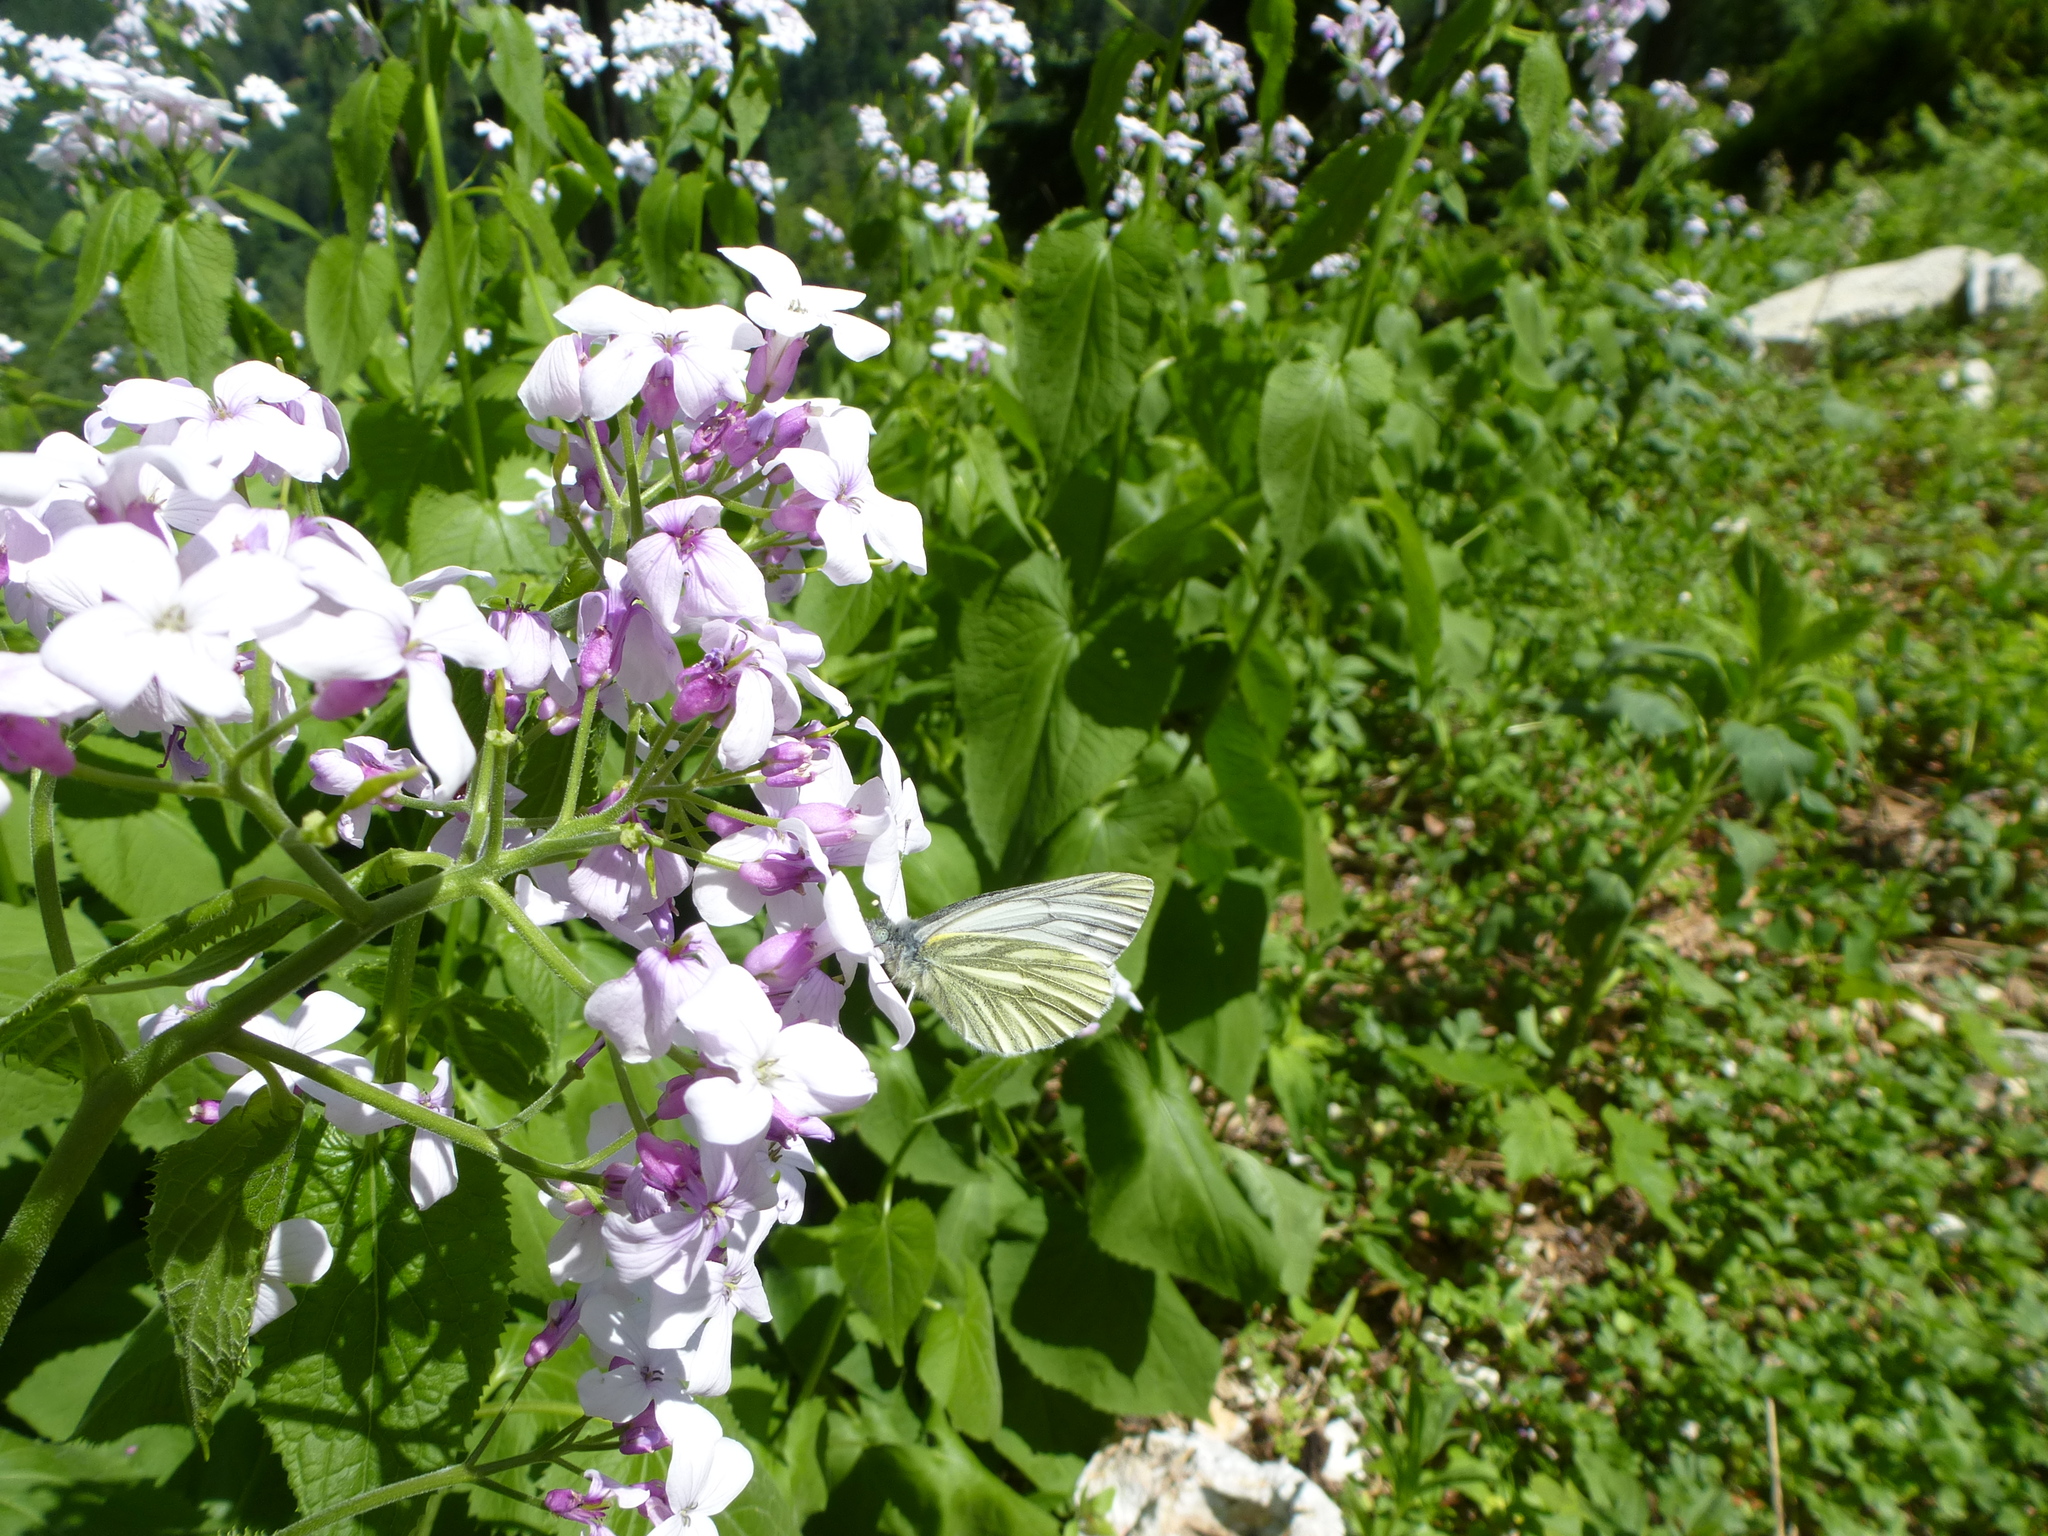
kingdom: Animalia
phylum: Arthropoda
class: Insecta
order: Lepidoptera
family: Pieridae
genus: Pieris
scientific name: Pieris napi
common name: Green-veined white
